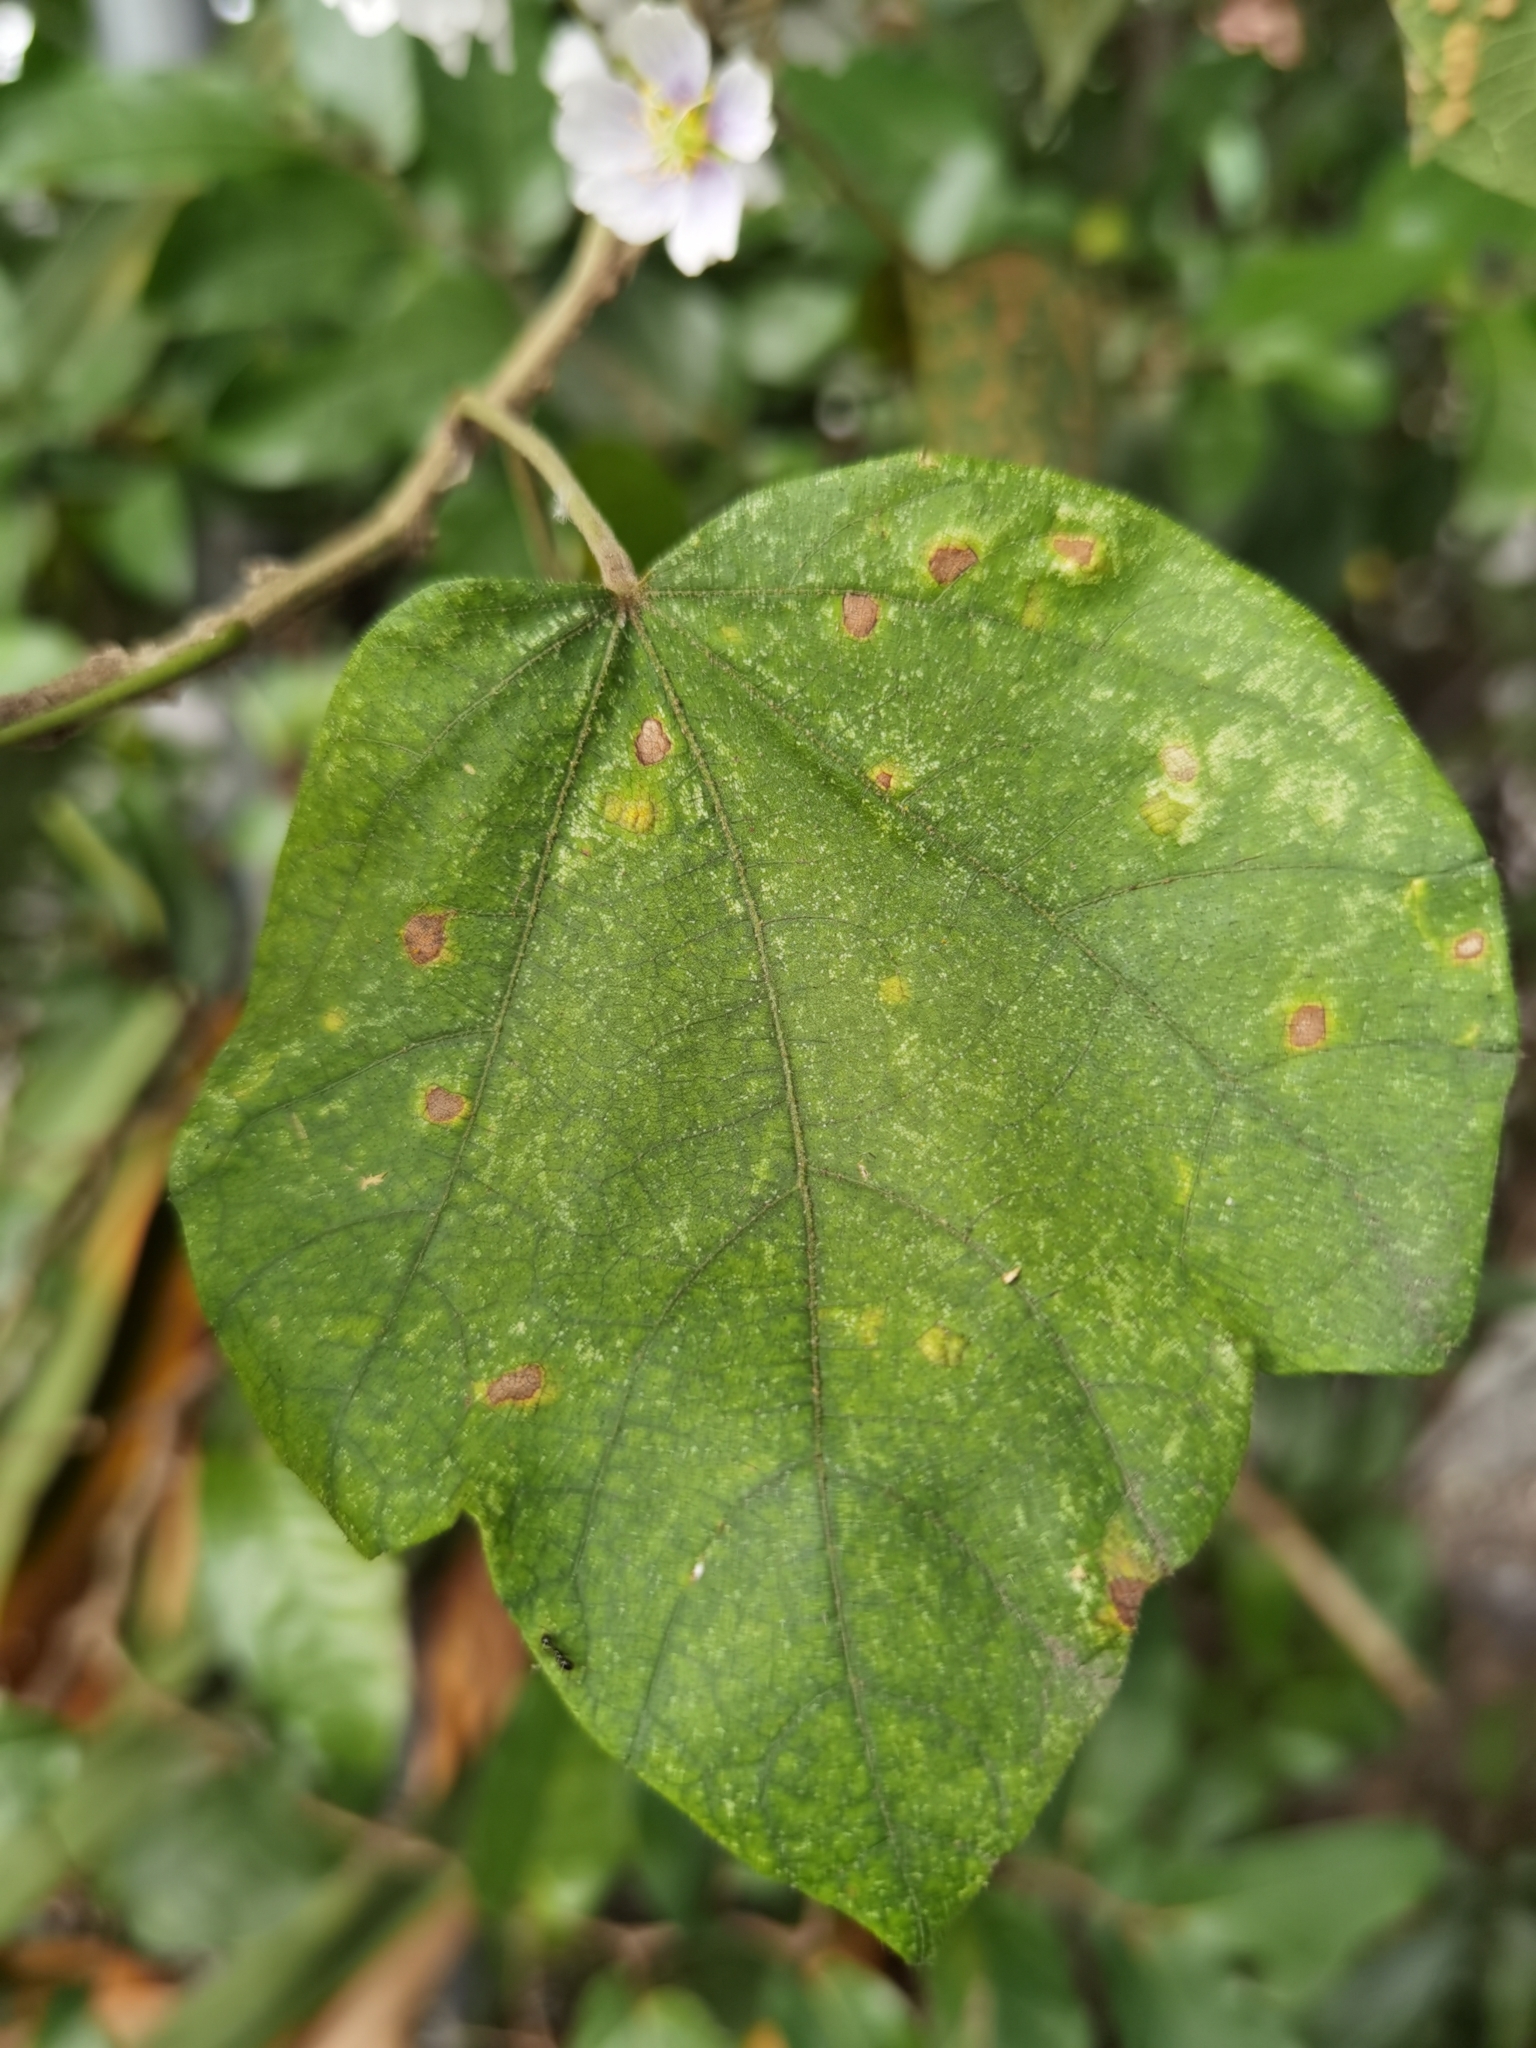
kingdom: Plantae
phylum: Tracheophyta
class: Magnoliopsida
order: Malvales
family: Malvaceae
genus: Robinsonella
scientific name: Robinsonella lindeniana
